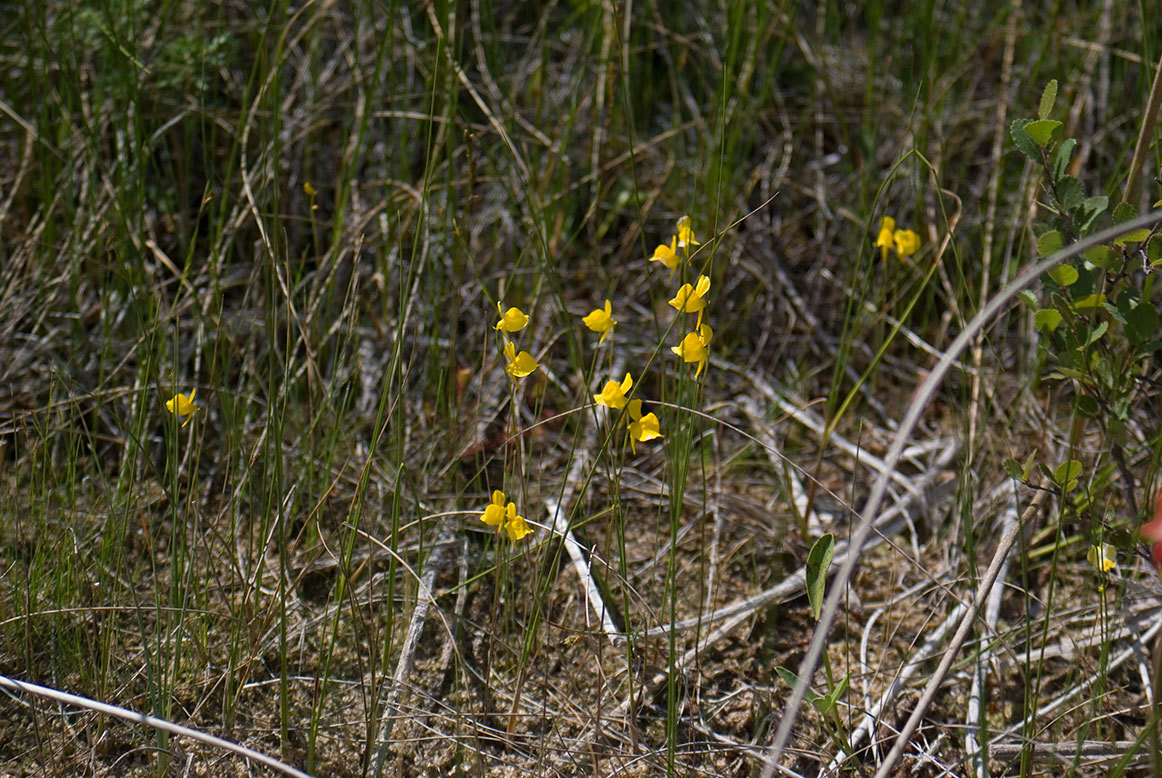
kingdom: Plantae
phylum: Tracheophyta
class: Magnoliopsida
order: Lamiales
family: Lentibulariaceae
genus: Utricularia
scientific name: Utricularia cornuta
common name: Horned bladderwort
